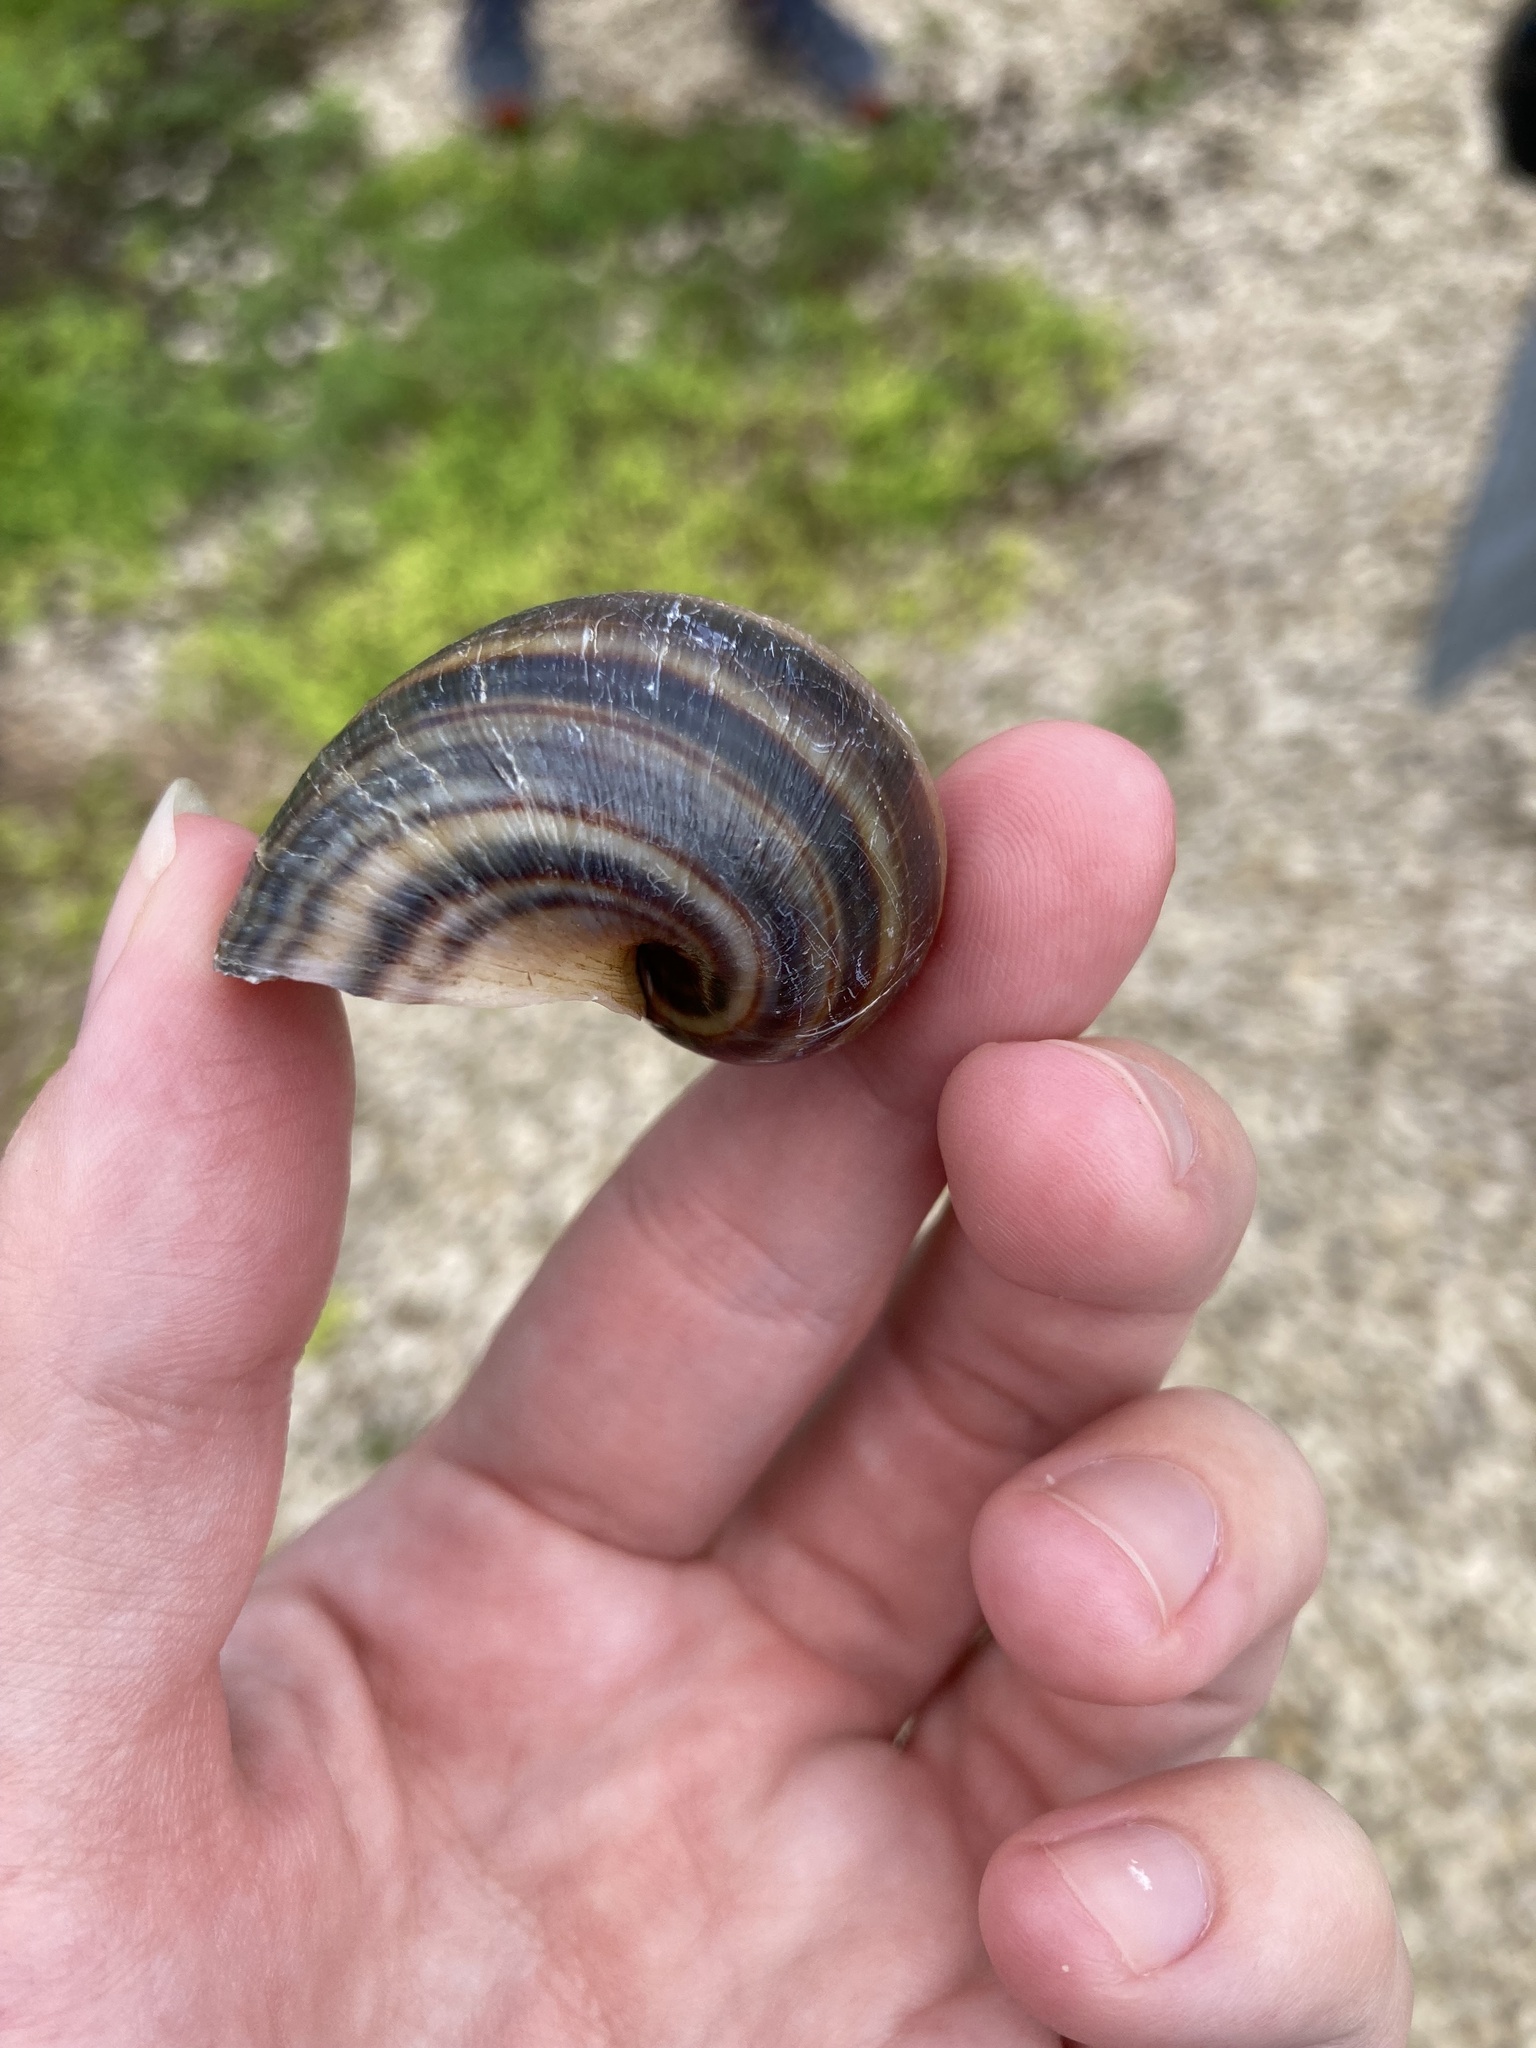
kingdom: Animalia
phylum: Mollusca
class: Gastropoda
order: Architaenioglossa
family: Ampullariidae
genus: Pomacea
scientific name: Pomacea maculata
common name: Giant applesnail
